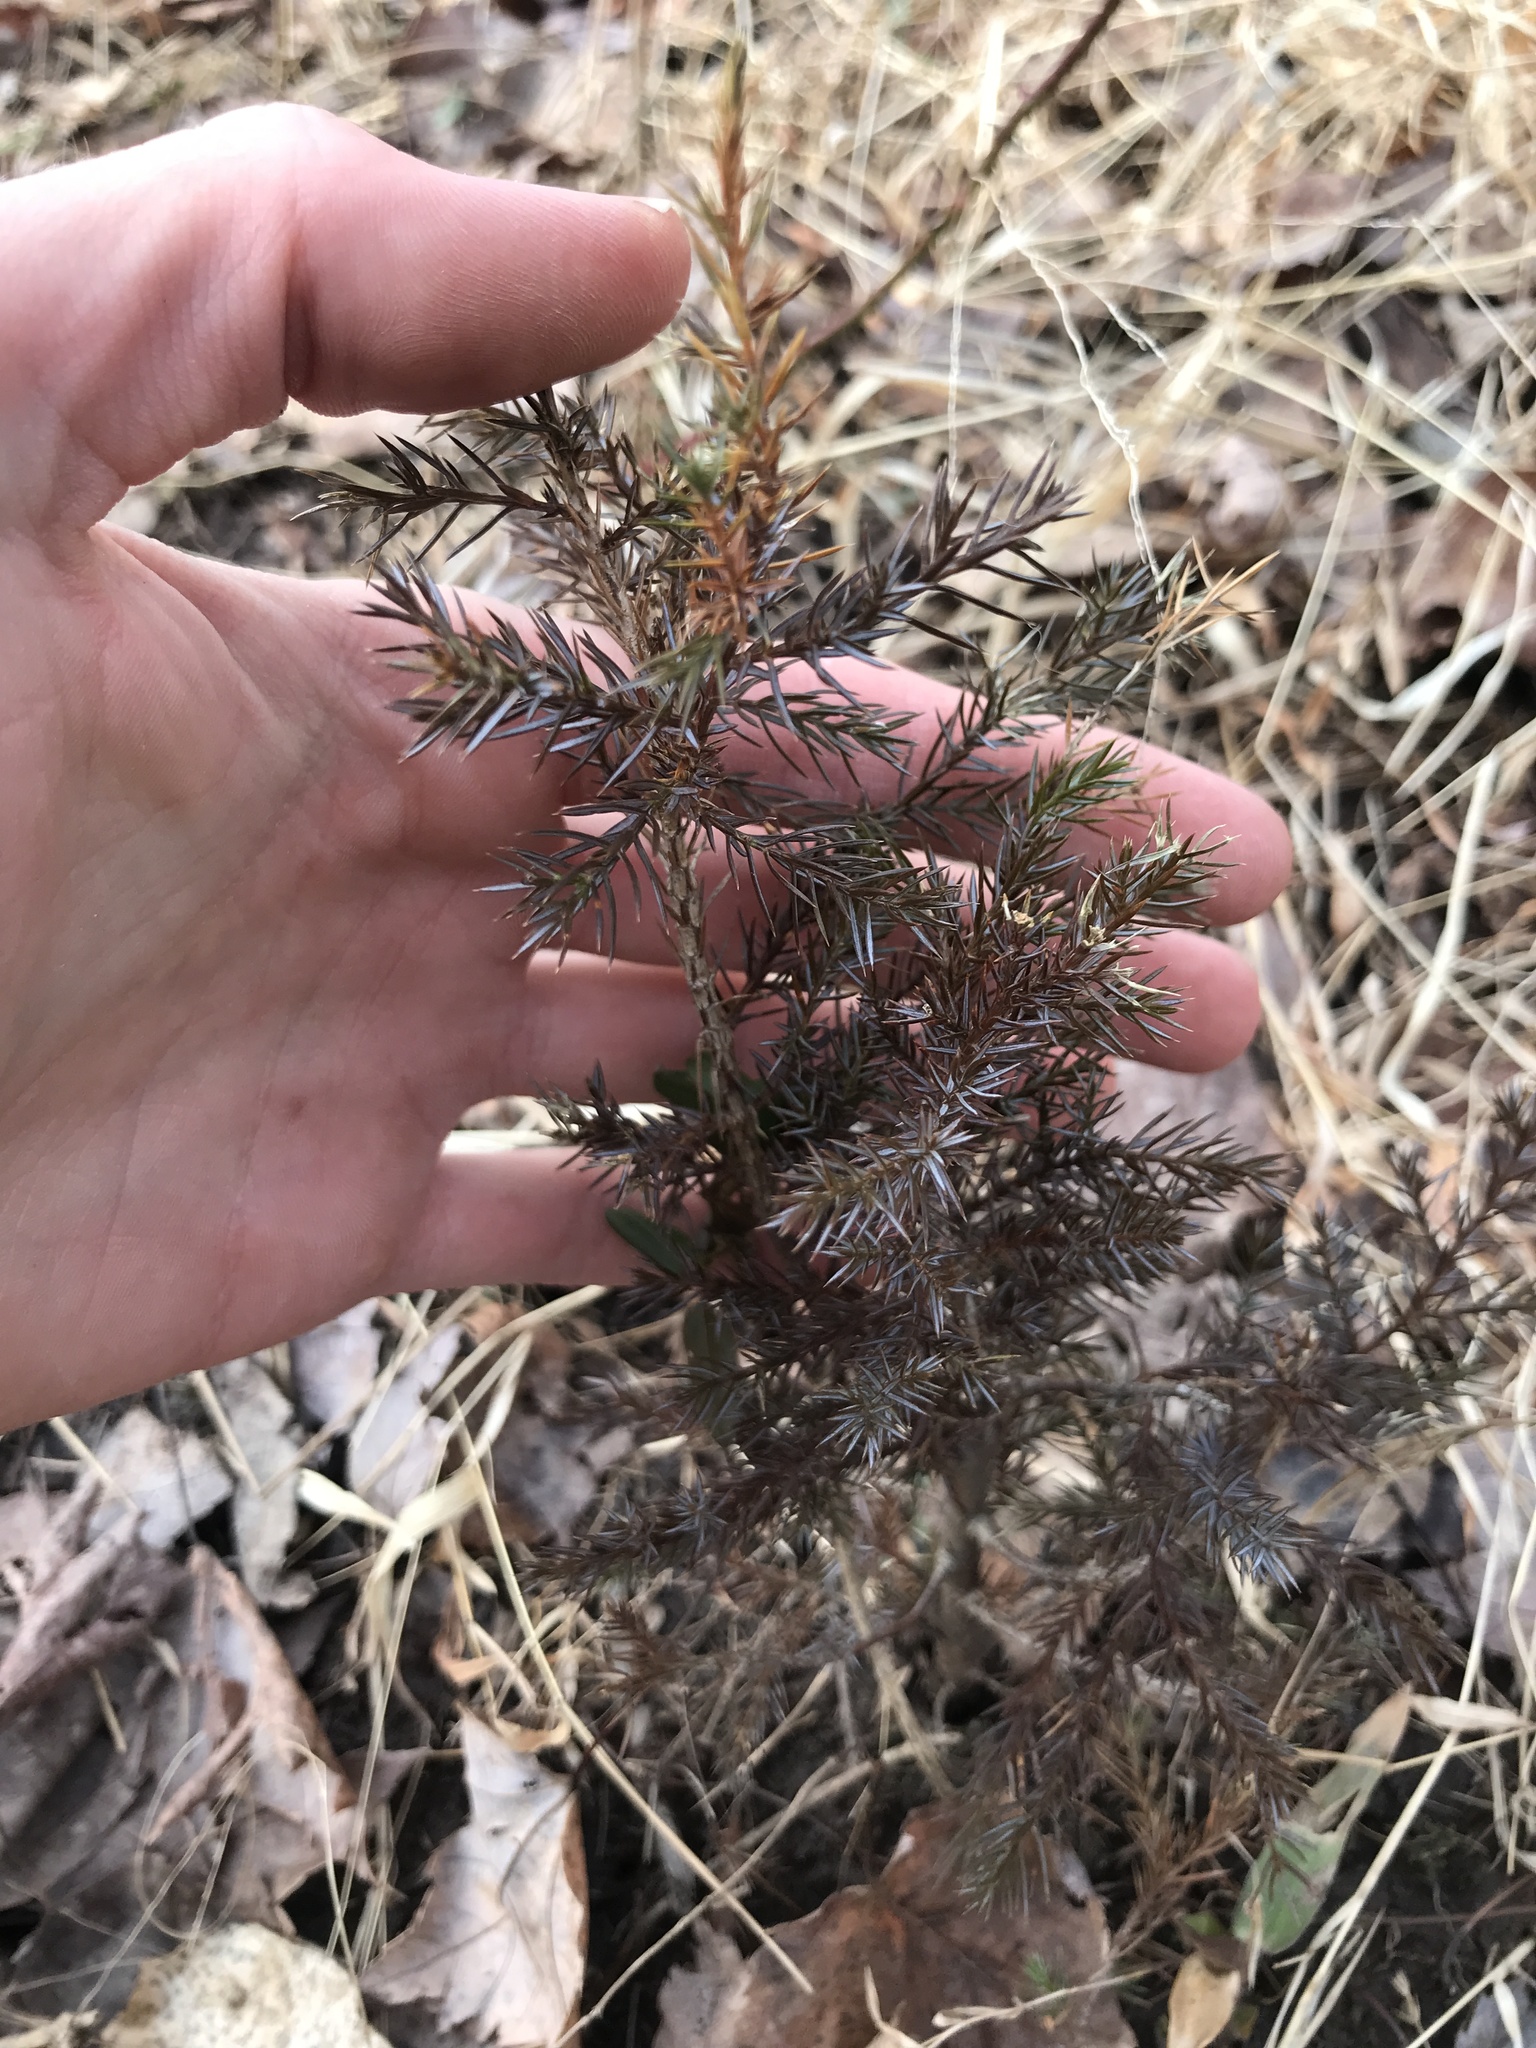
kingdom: Plantae
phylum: Tracheophyta
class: Pinopsida
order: Pinales
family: Cupressaceae
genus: Juniperus
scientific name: Juniperus virginiana
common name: Red juniper
